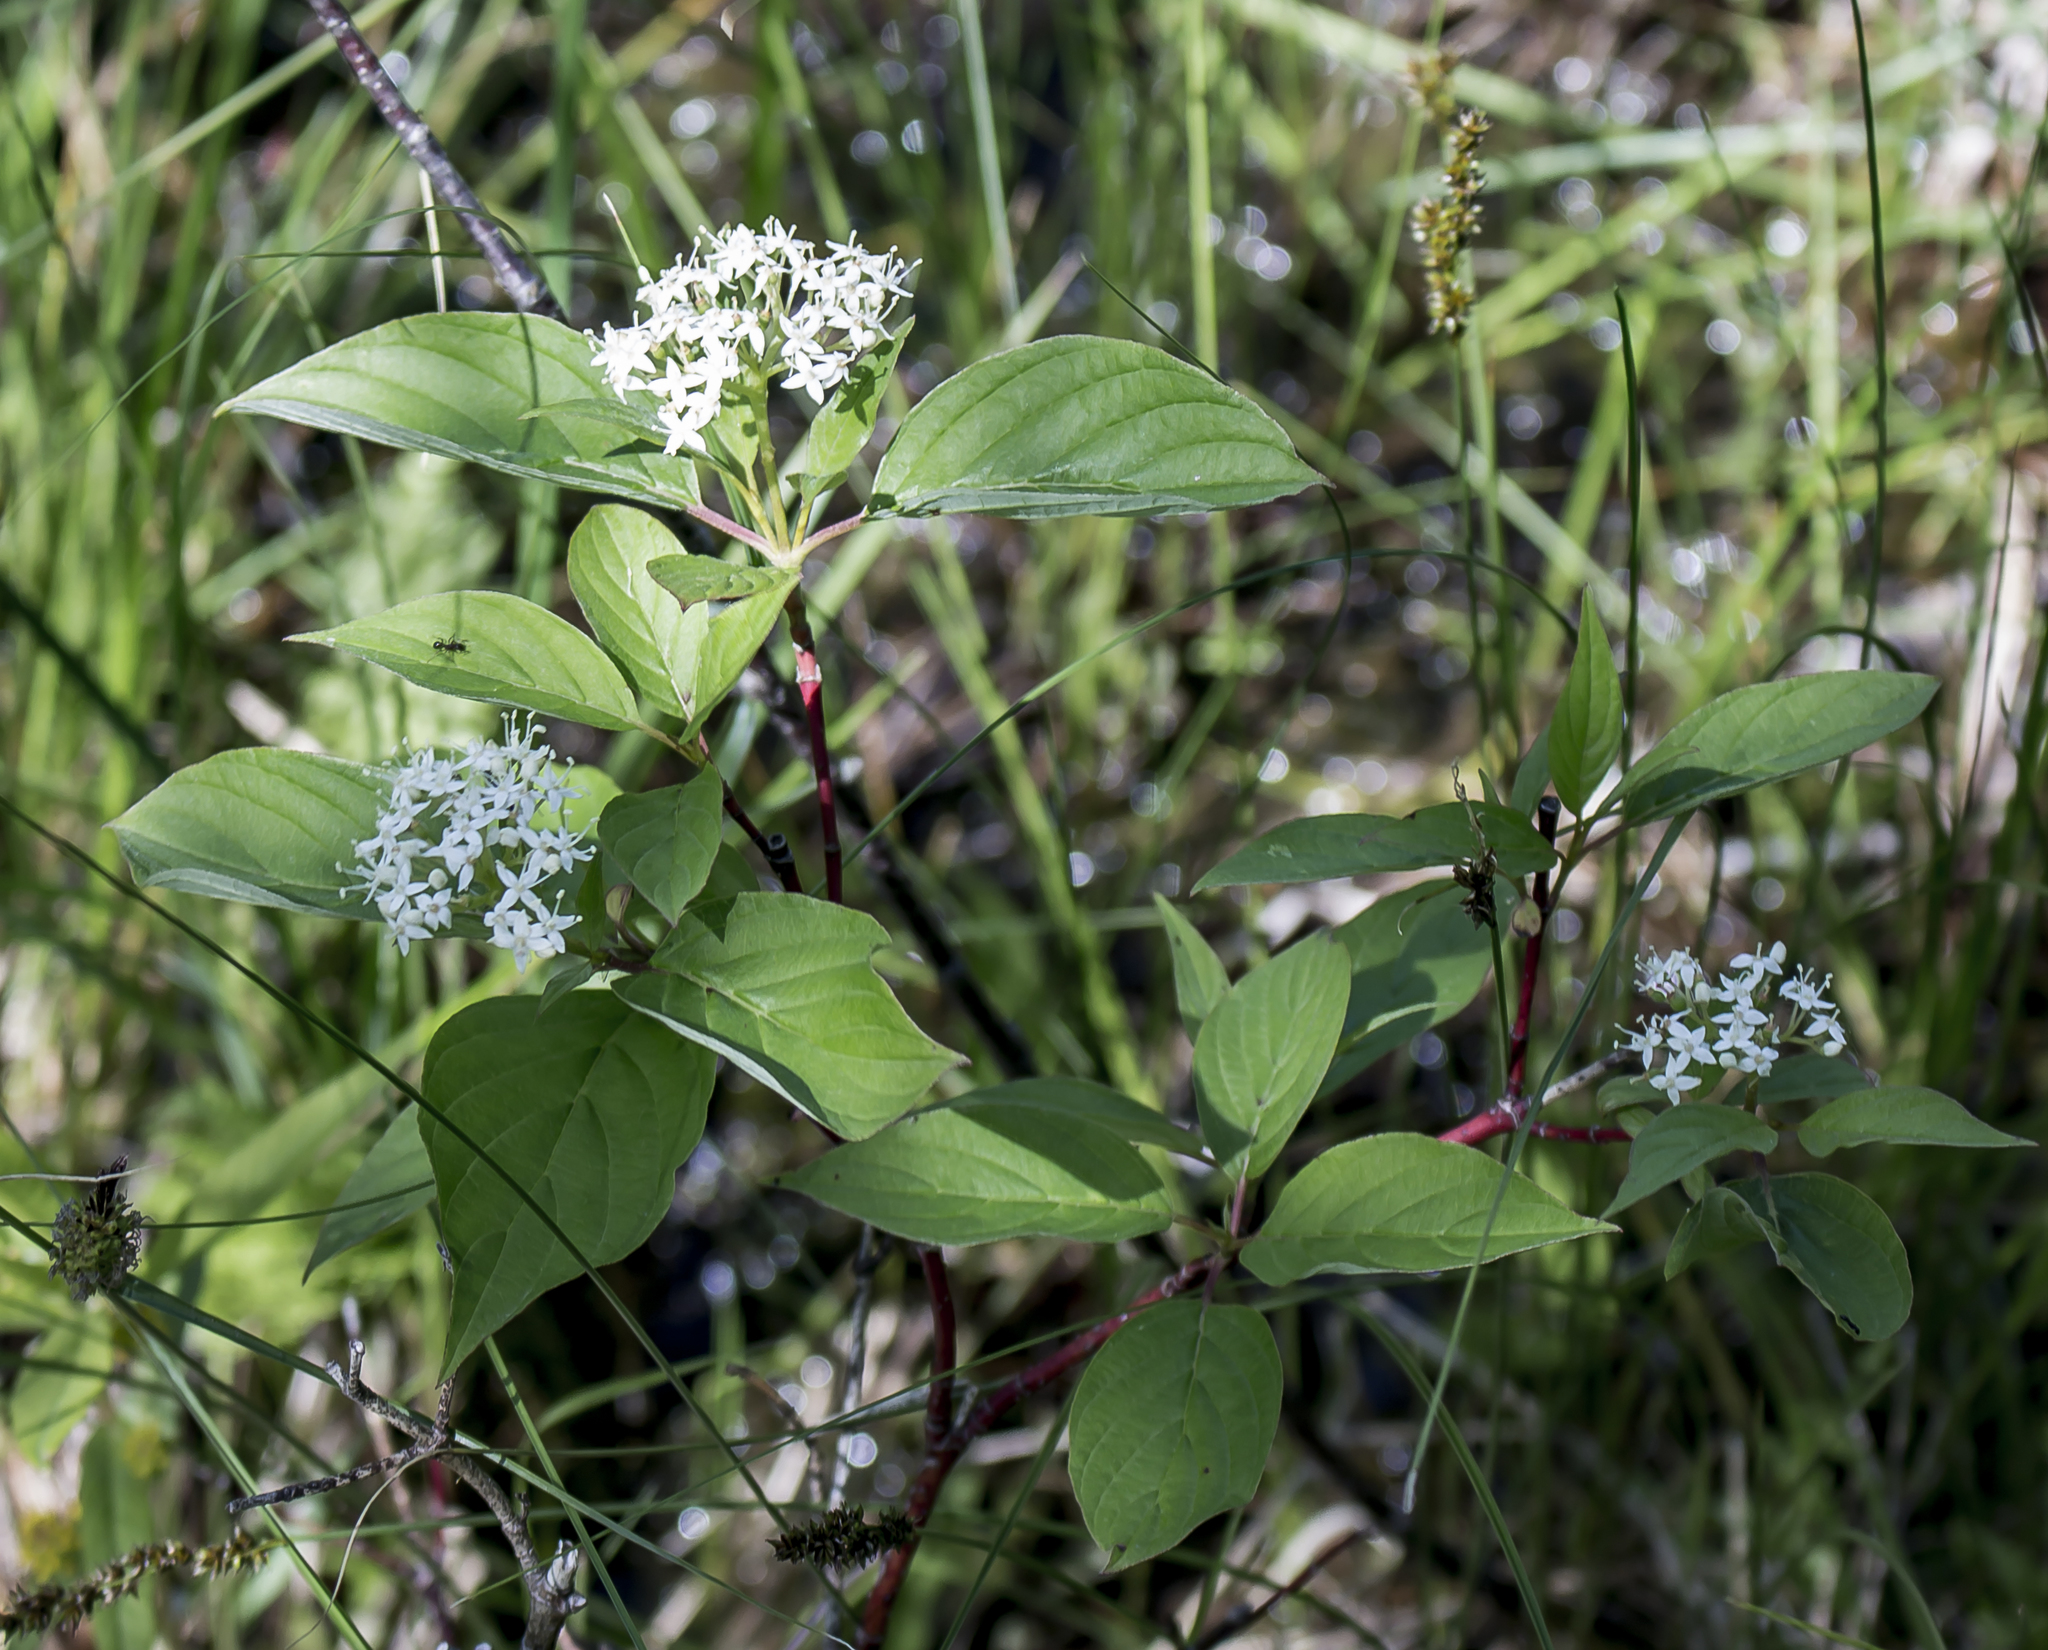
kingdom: Plantae
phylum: Tracheophyta
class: Magnoliopsida
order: Cornales
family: Cornaceae
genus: Cornus
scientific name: Cornus sericea
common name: Red-osier dogwood
